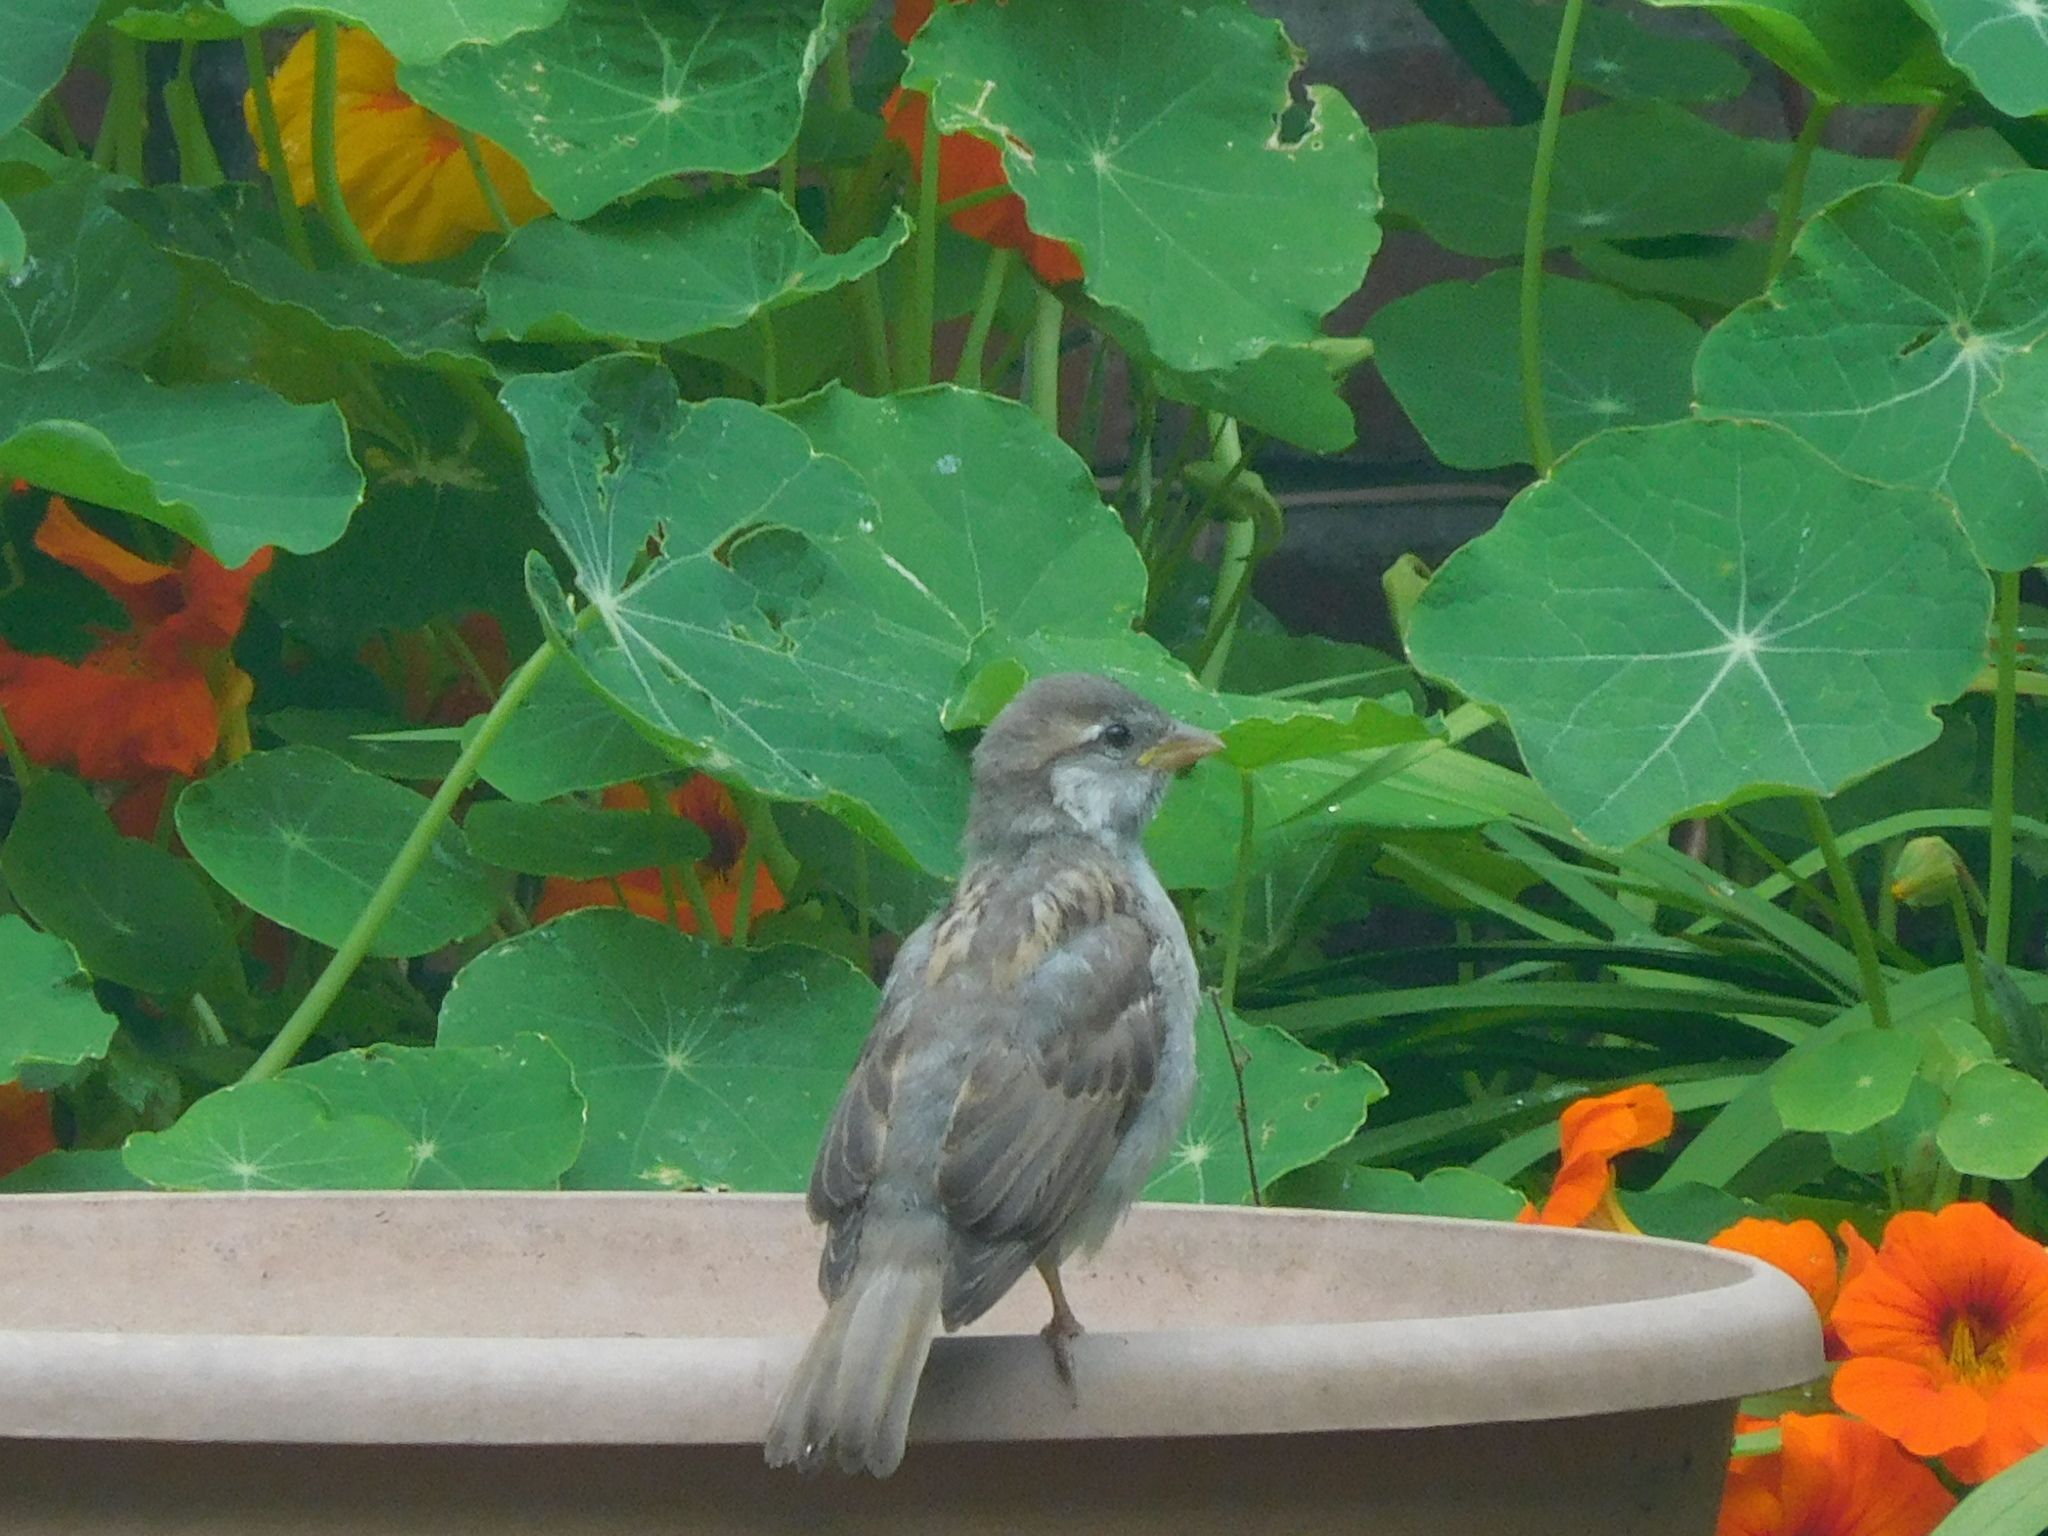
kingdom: Animalia
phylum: Chordata
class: Aves
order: Passeriformes
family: Passeridae
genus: Passer
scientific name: Passer domesticus
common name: House sparrow
